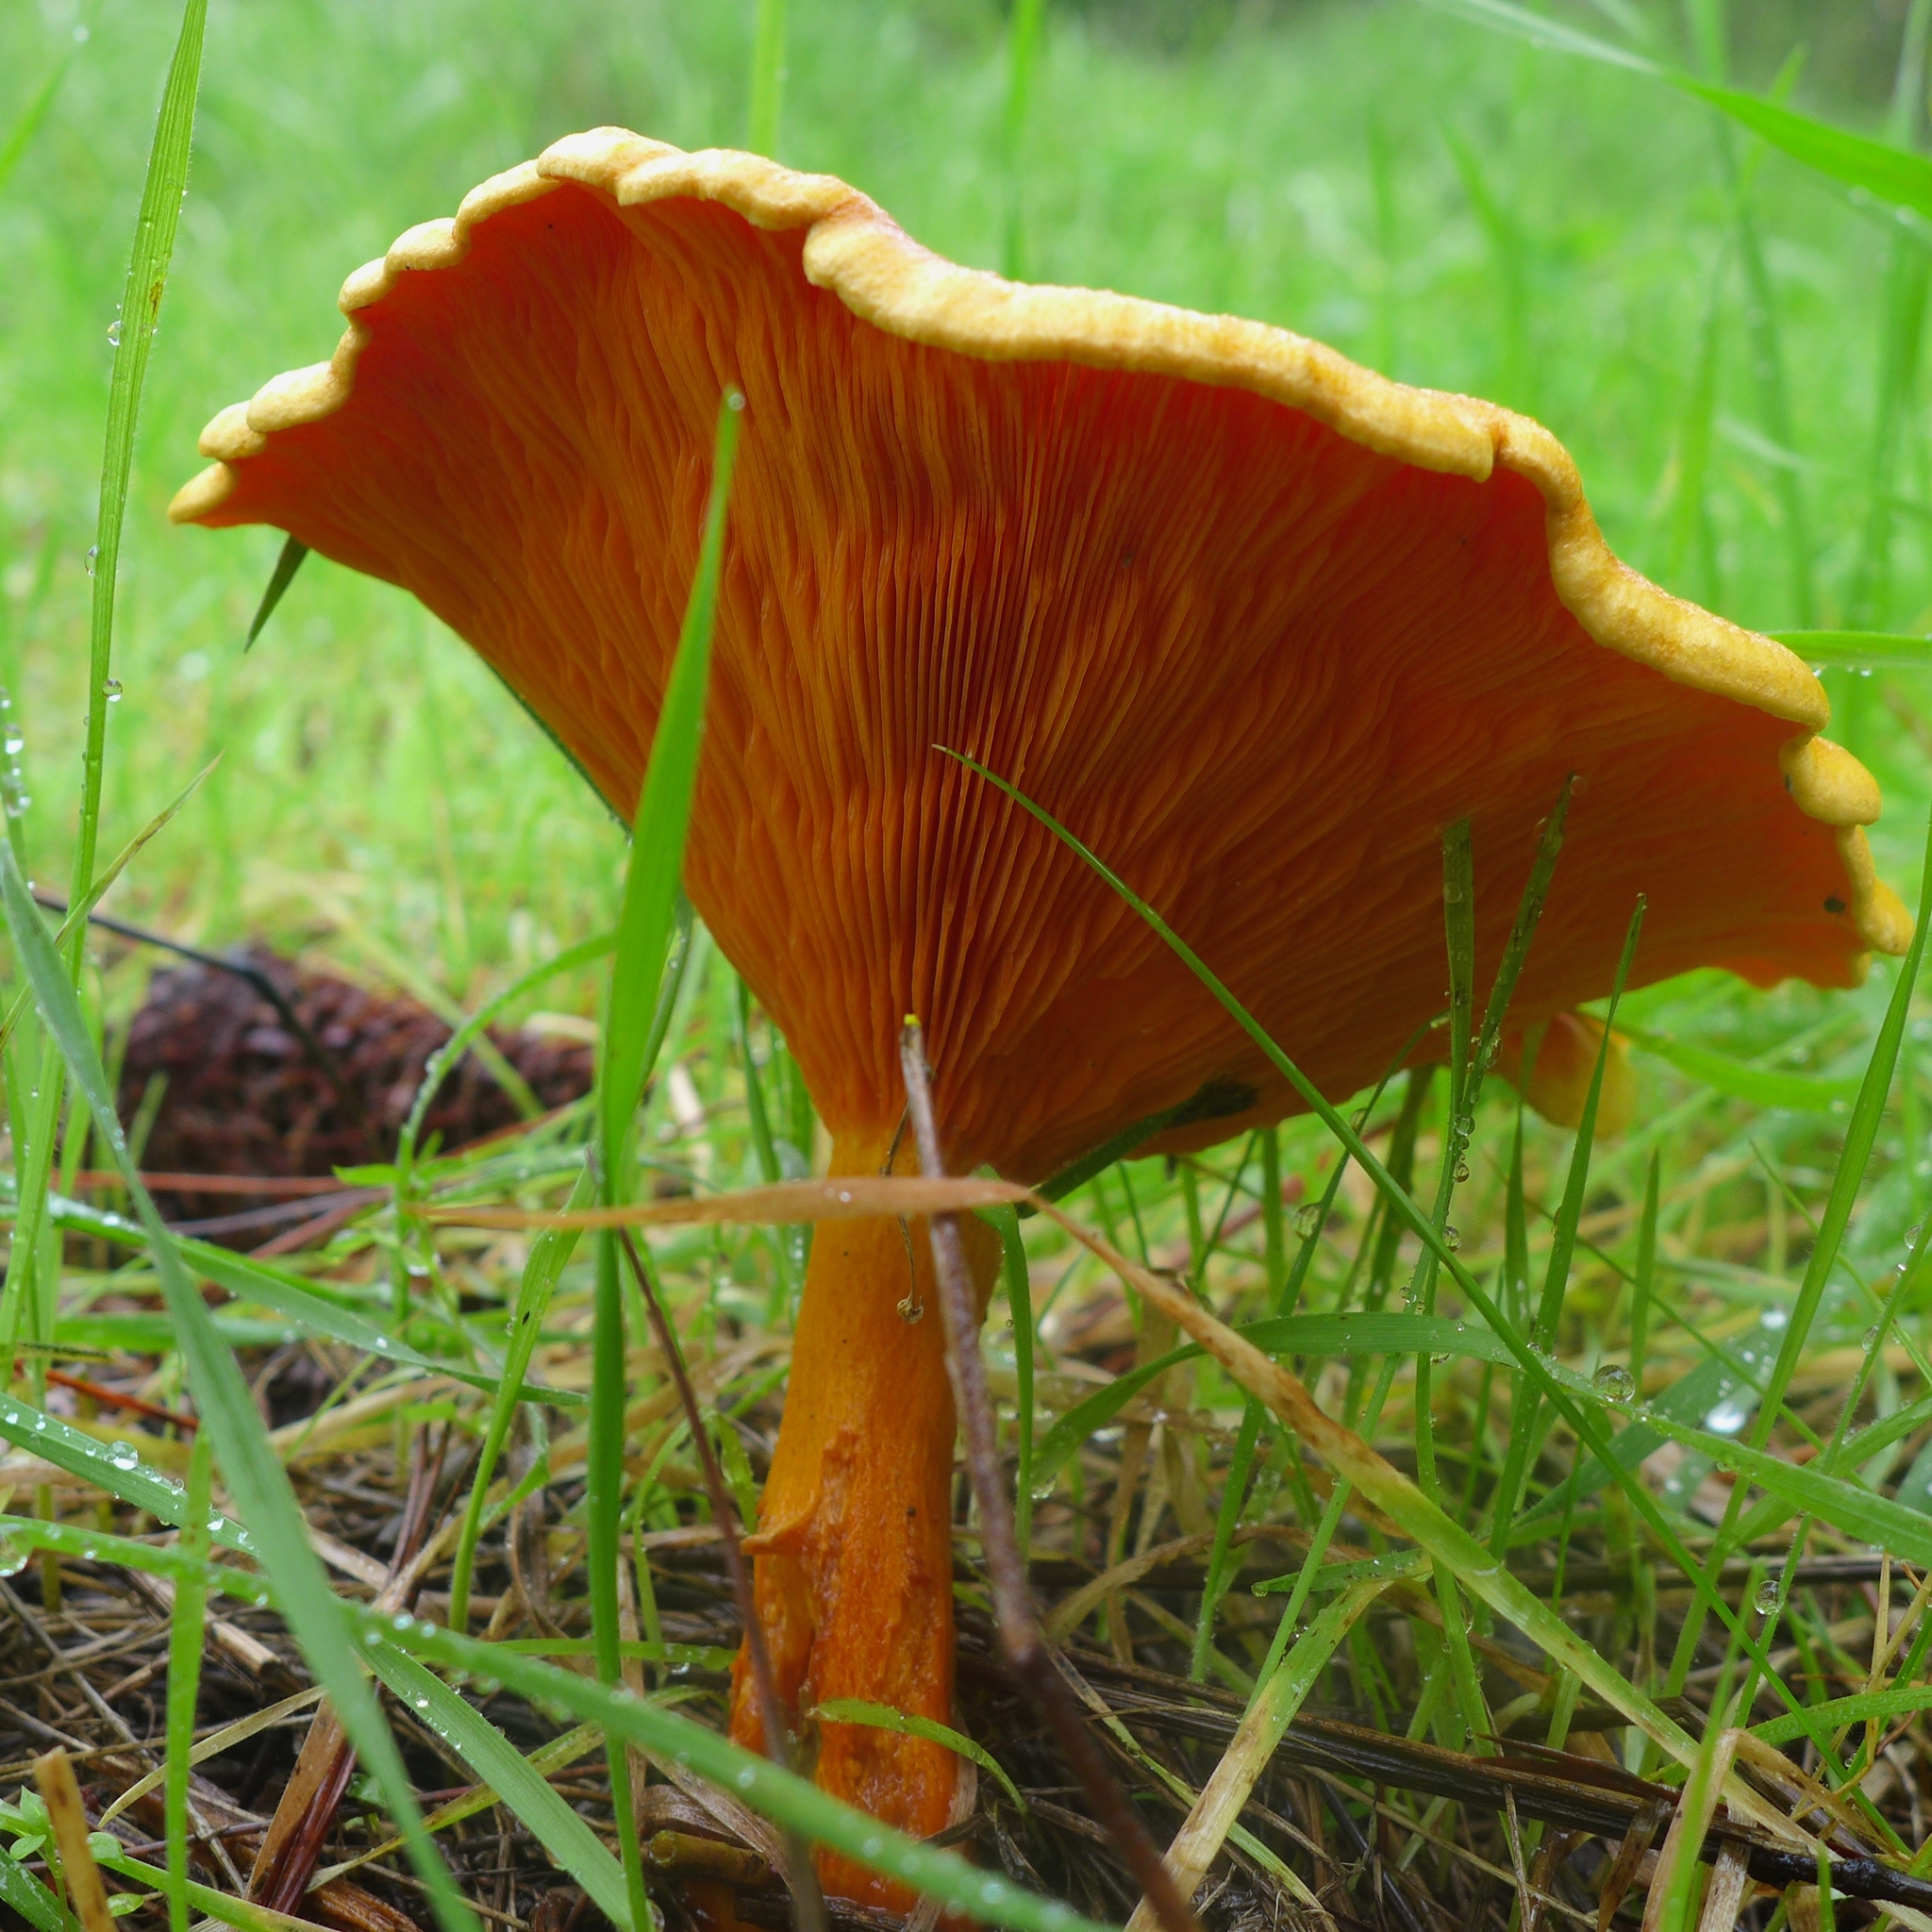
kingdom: Fungi
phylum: Basidiomycota
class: Agaricomycetes
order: Boletales
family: Hygrophoropsidaceae
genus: Hygrophoropsis
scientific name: Hygrophoropsis aurantiaca
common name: False chanterelle
